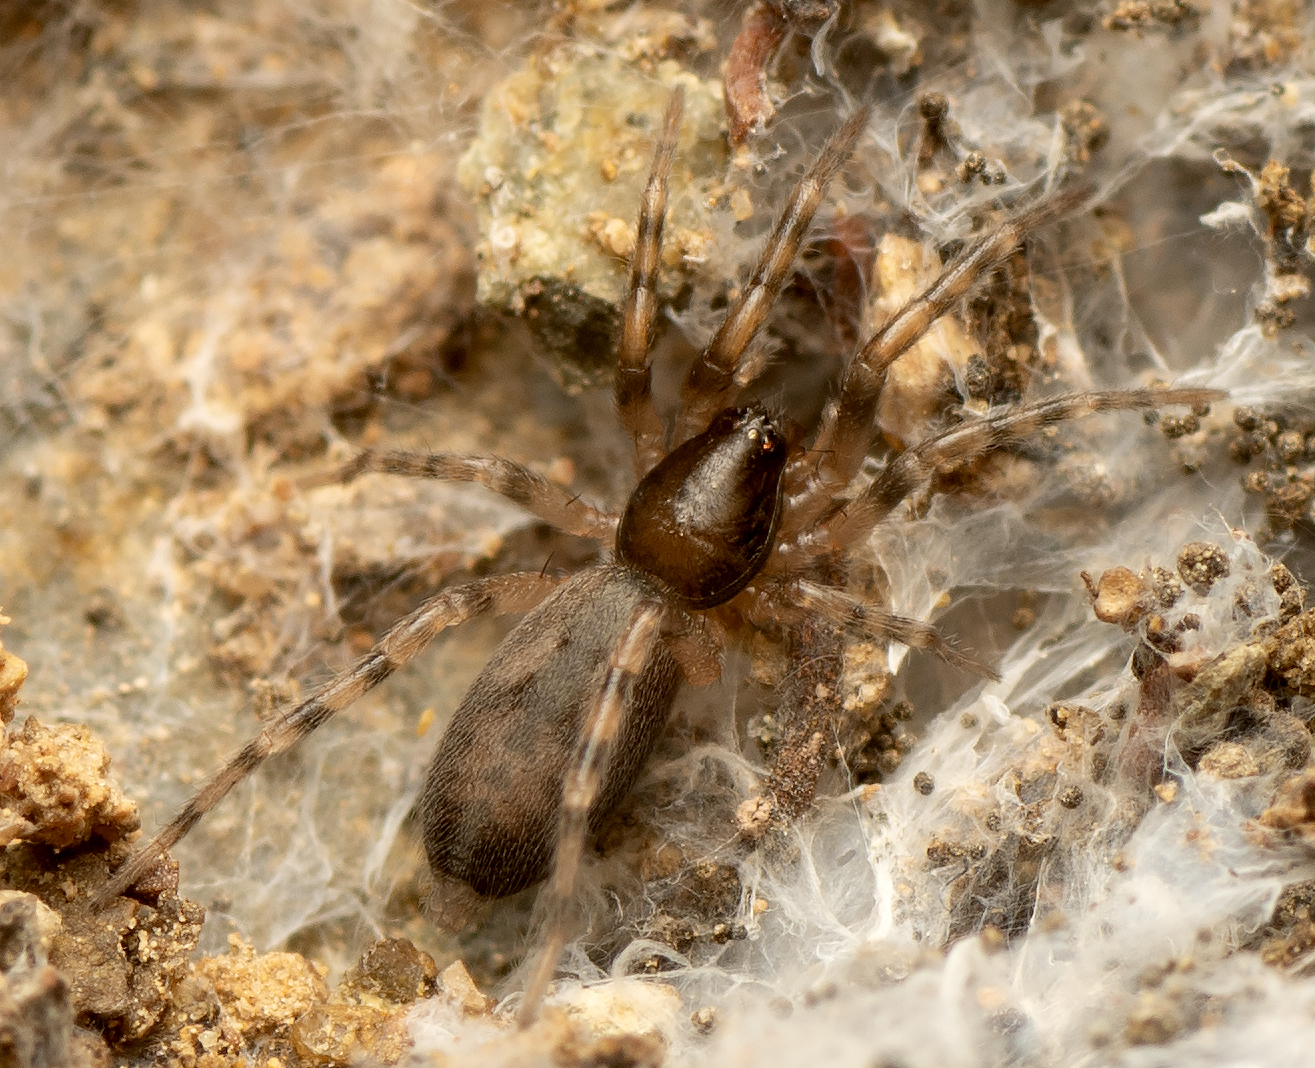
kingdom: Animalia
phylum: Arthropoda
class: Arachnida
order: Araneae
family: Gnaphosidae
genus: Intruda
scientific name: Intruda signata
